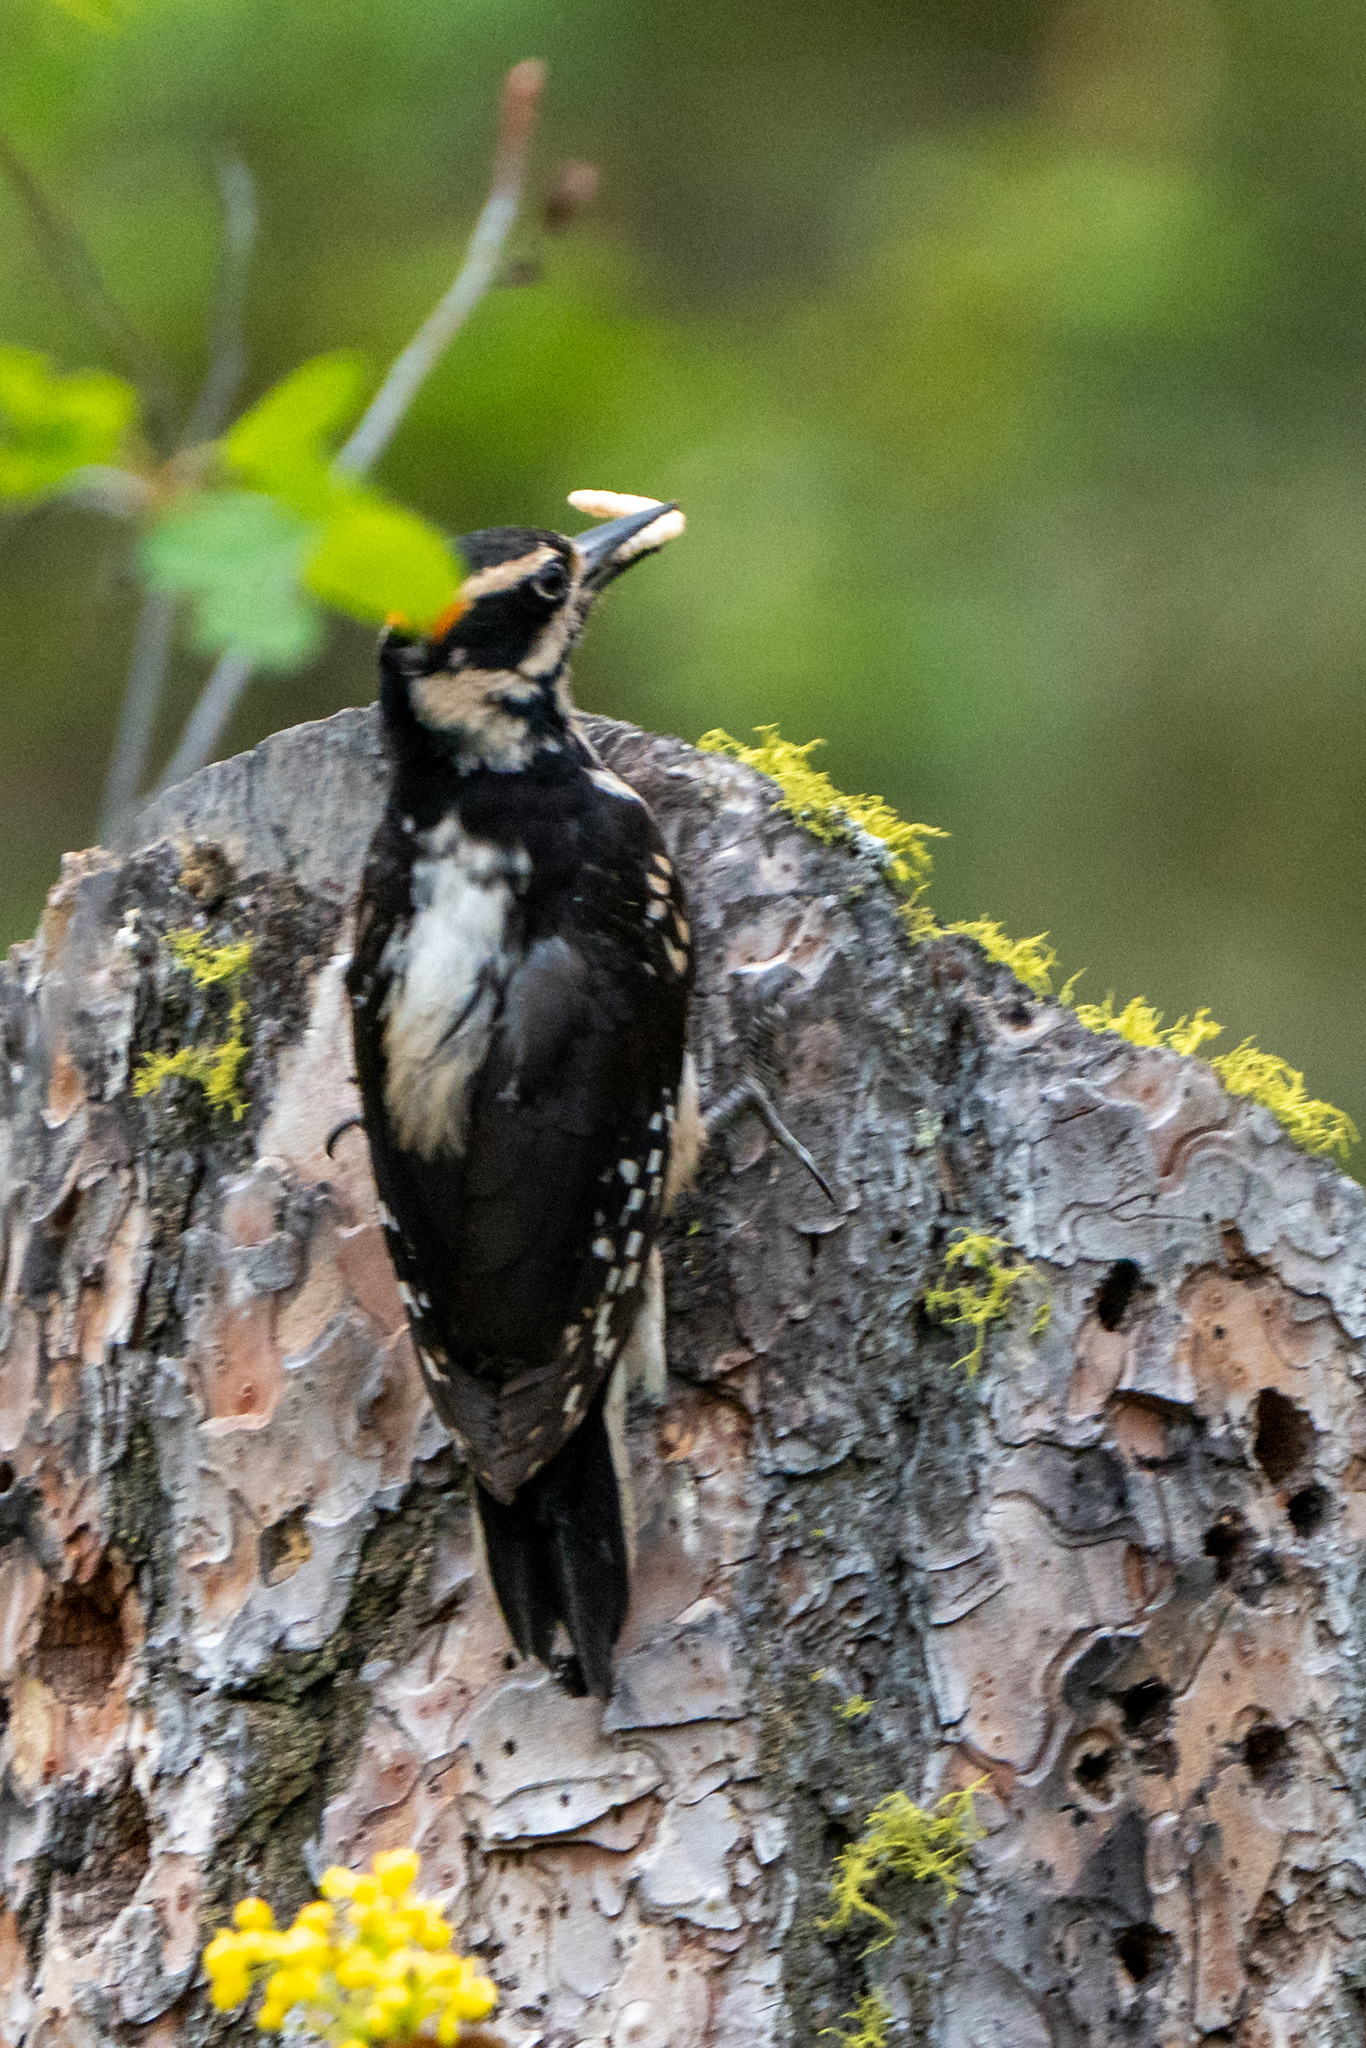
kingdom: Animalia
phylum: Chordata
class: Aves
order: Piciformes
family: Picidae
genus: Leuconotopicus
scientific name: Leuconotopicus villosus
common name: Hairy woodpecker
